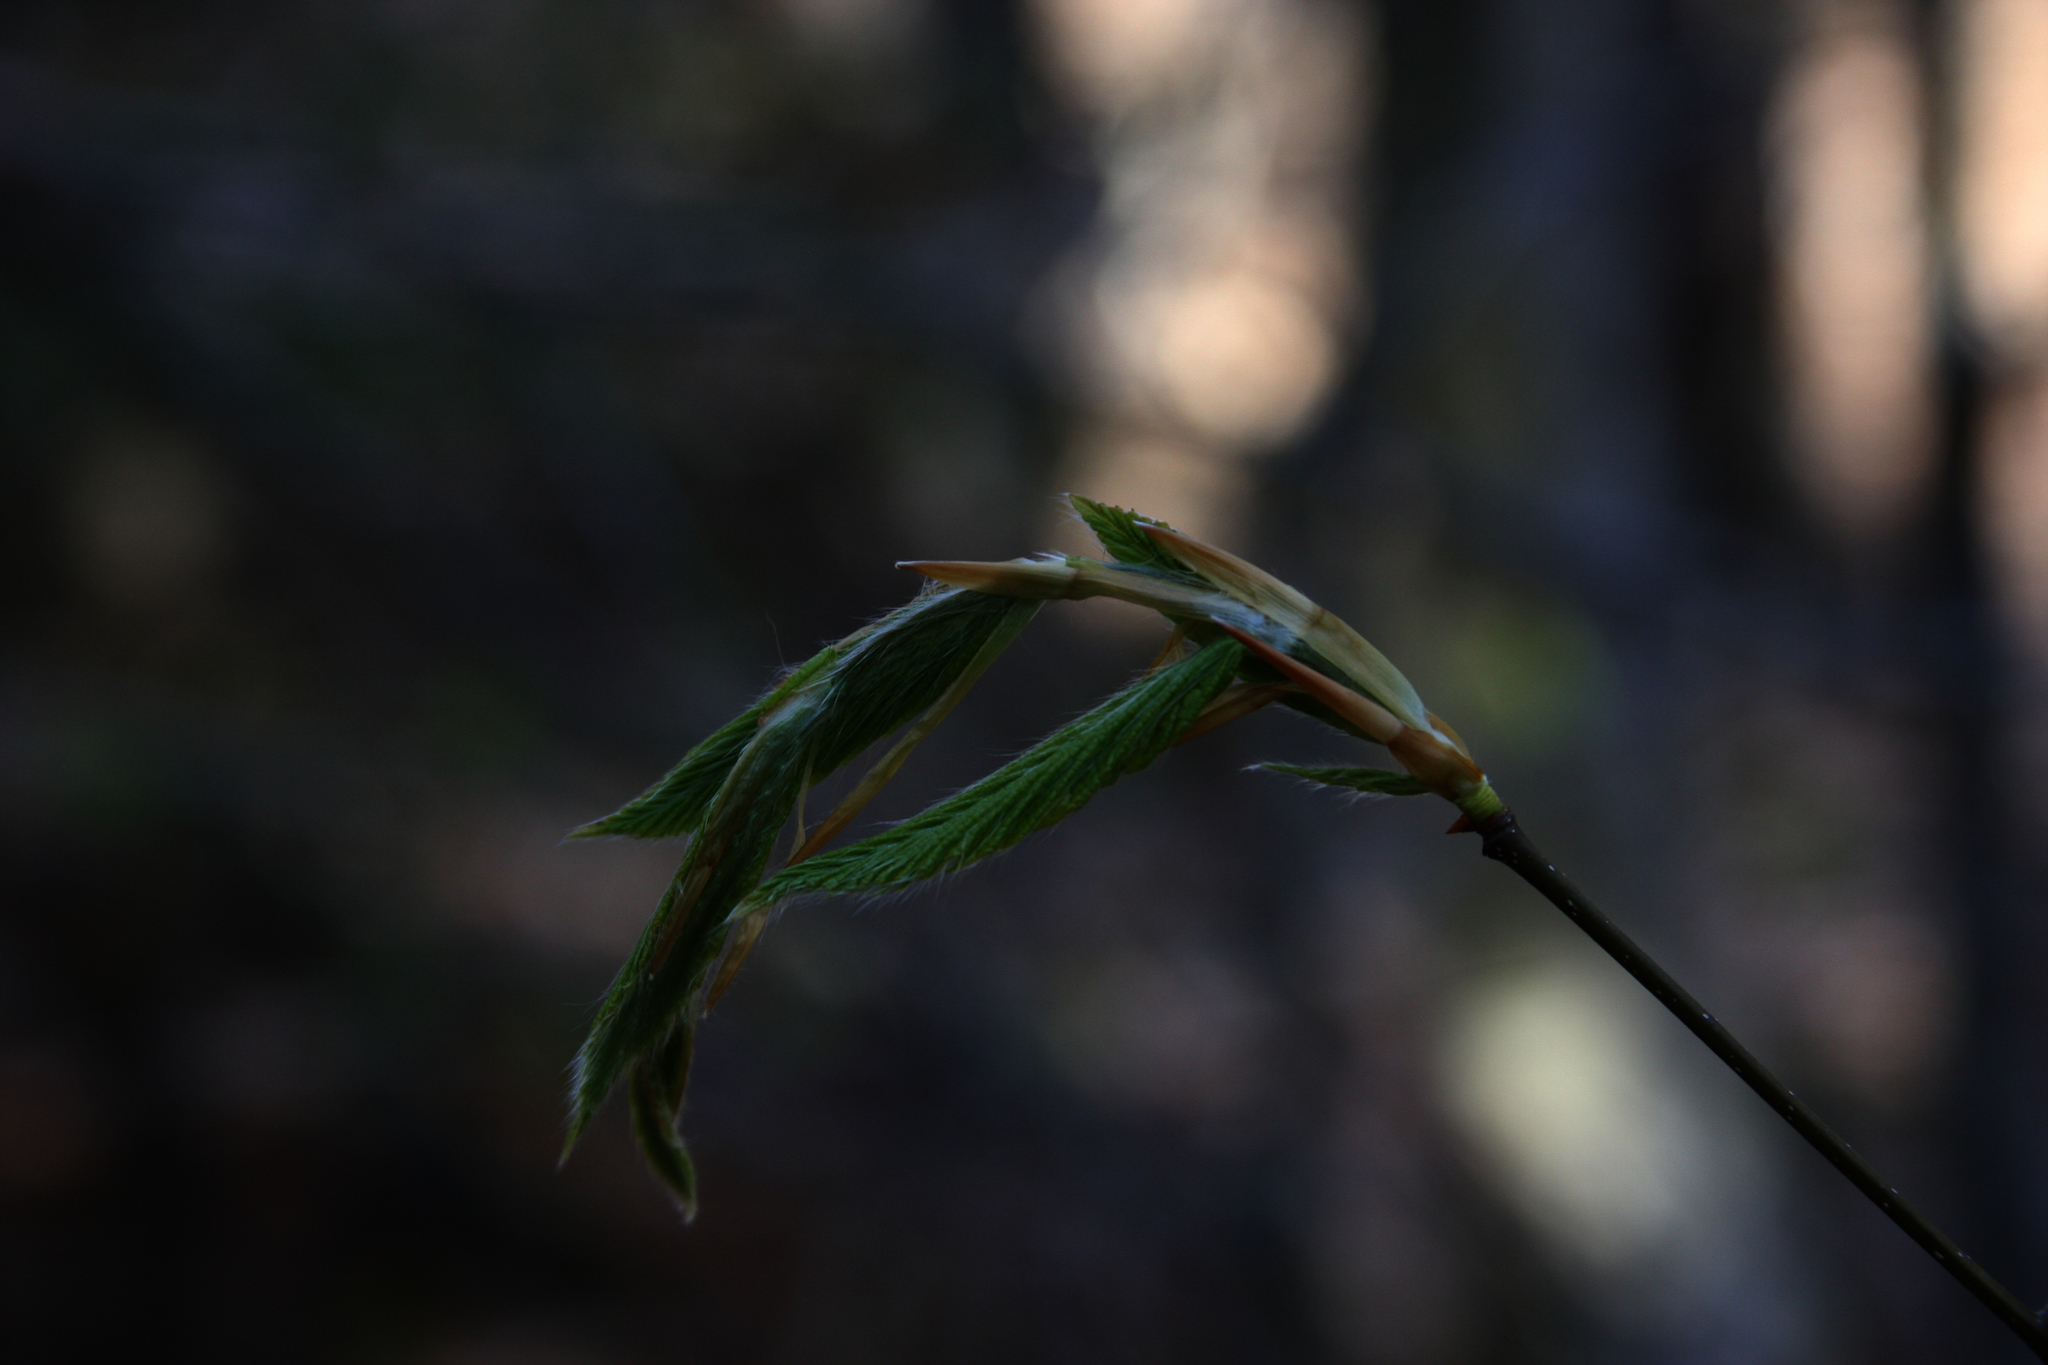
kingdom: Plantae
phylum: Tracheophyta
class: Magnoliopsida
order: Fagales
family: Fagaceae
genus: Fagus
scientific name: Fagus grandifolia
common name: American beech
